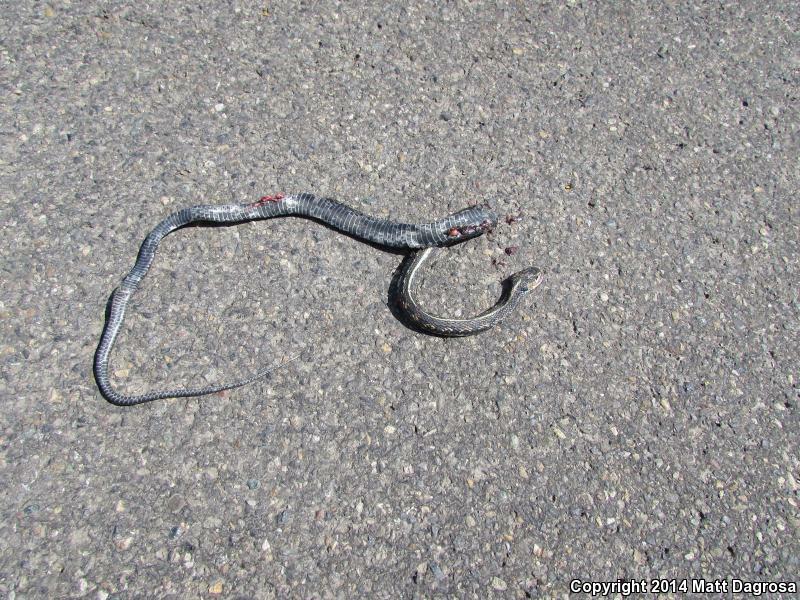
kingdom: Animalia
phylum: Chordata
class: Squamata
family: Colubridae
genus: Thamnophis
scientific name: Thamnophis sirtalis
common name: Common garter snake
